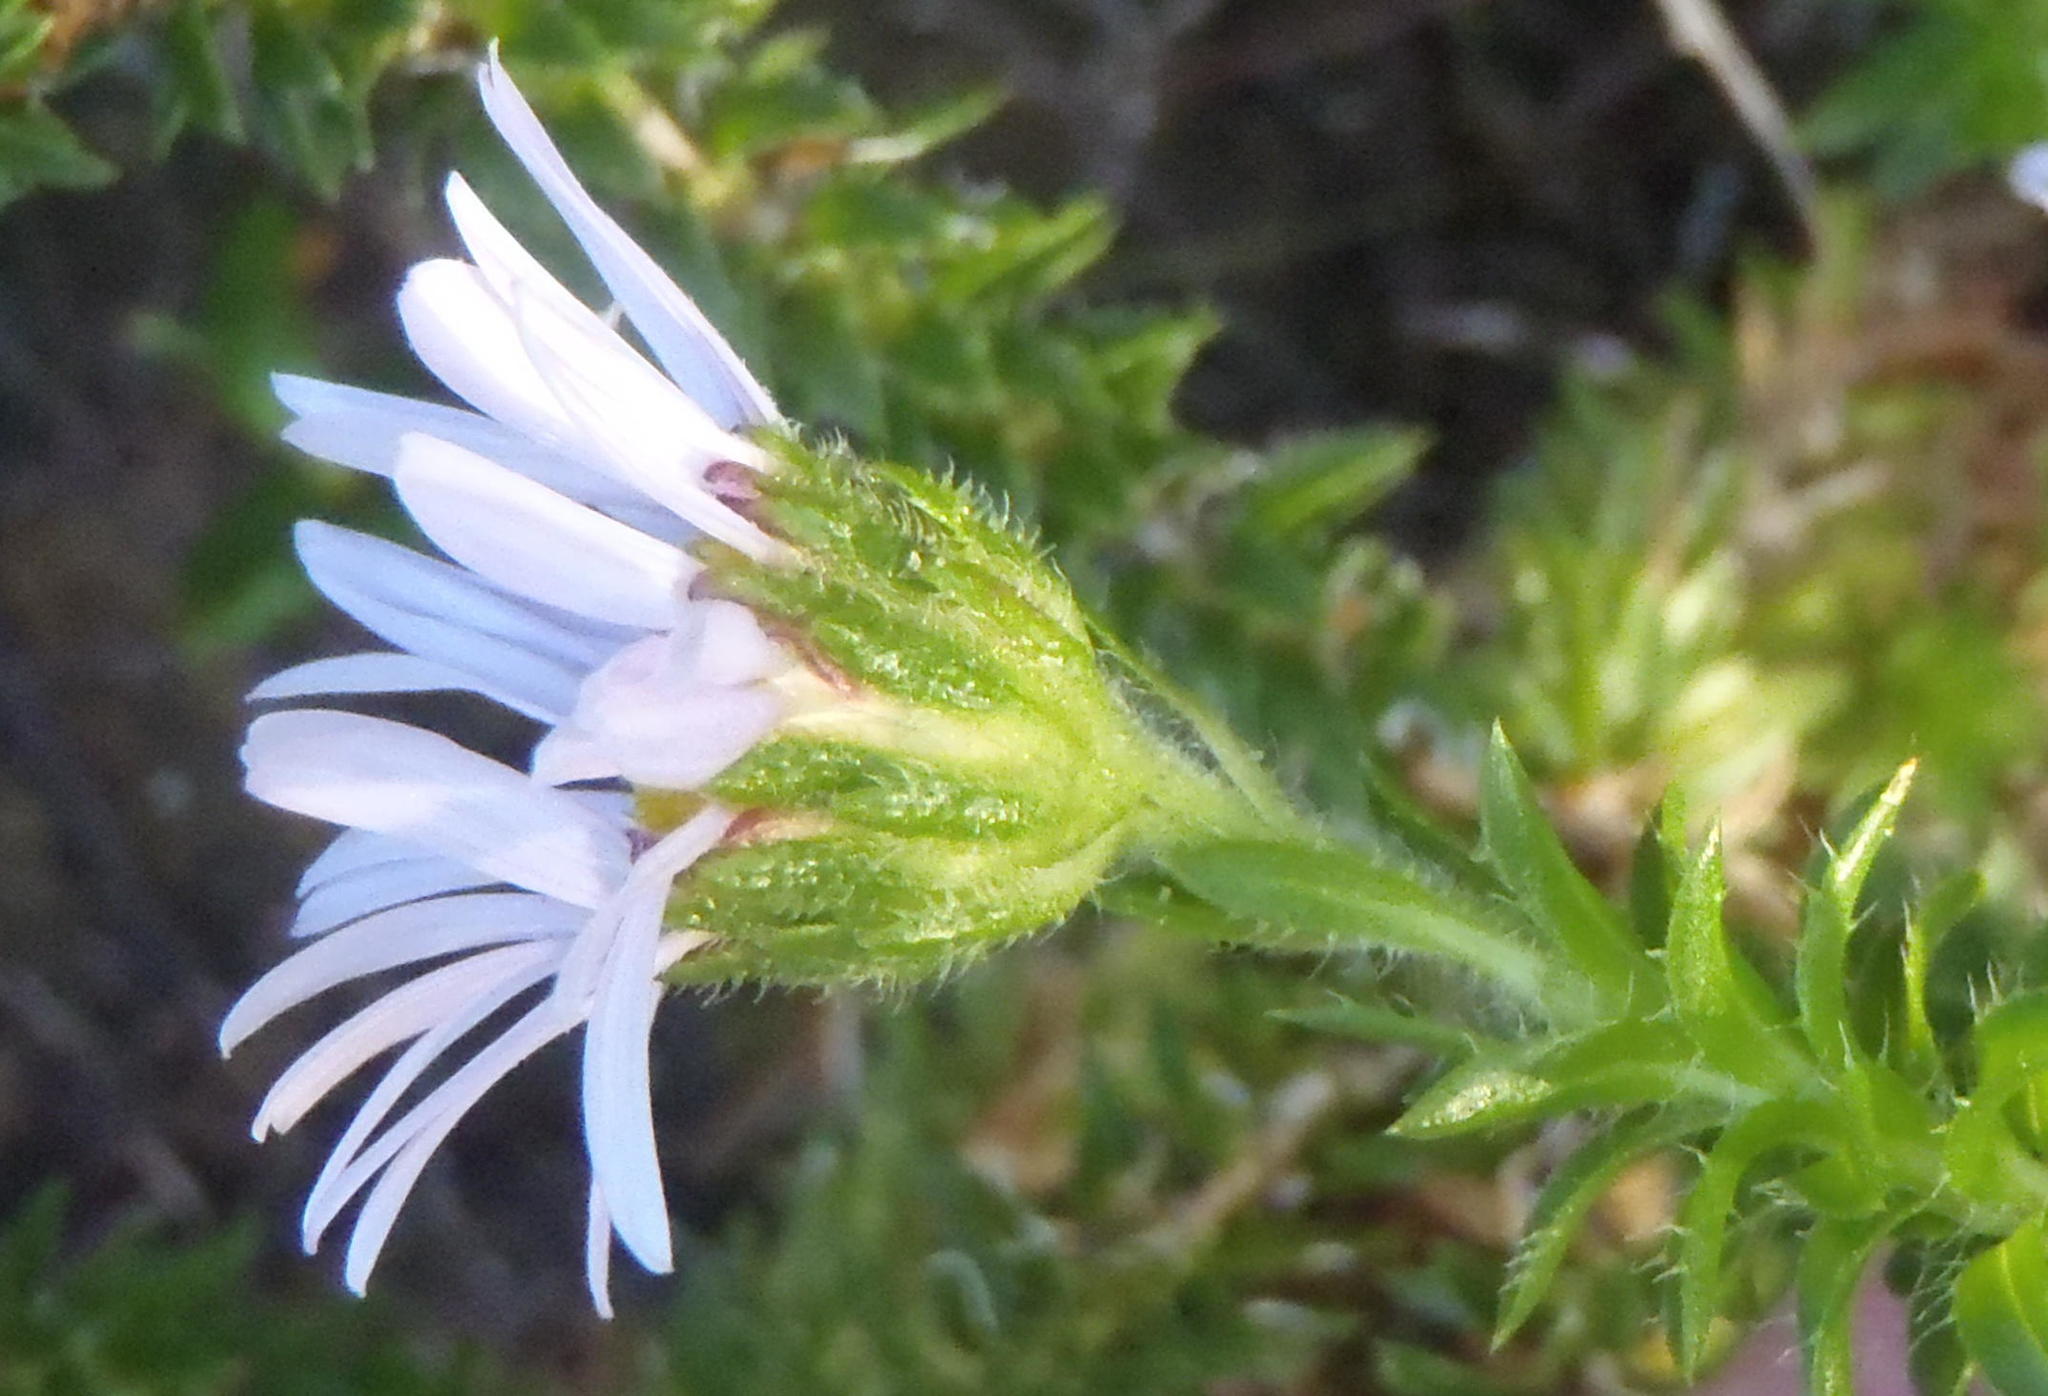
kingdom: Plantae
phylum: Tracheophyta
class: Magnoliopsida
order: Asterales
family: Asteraceae
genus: Felicia
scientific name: Felicia echinata
